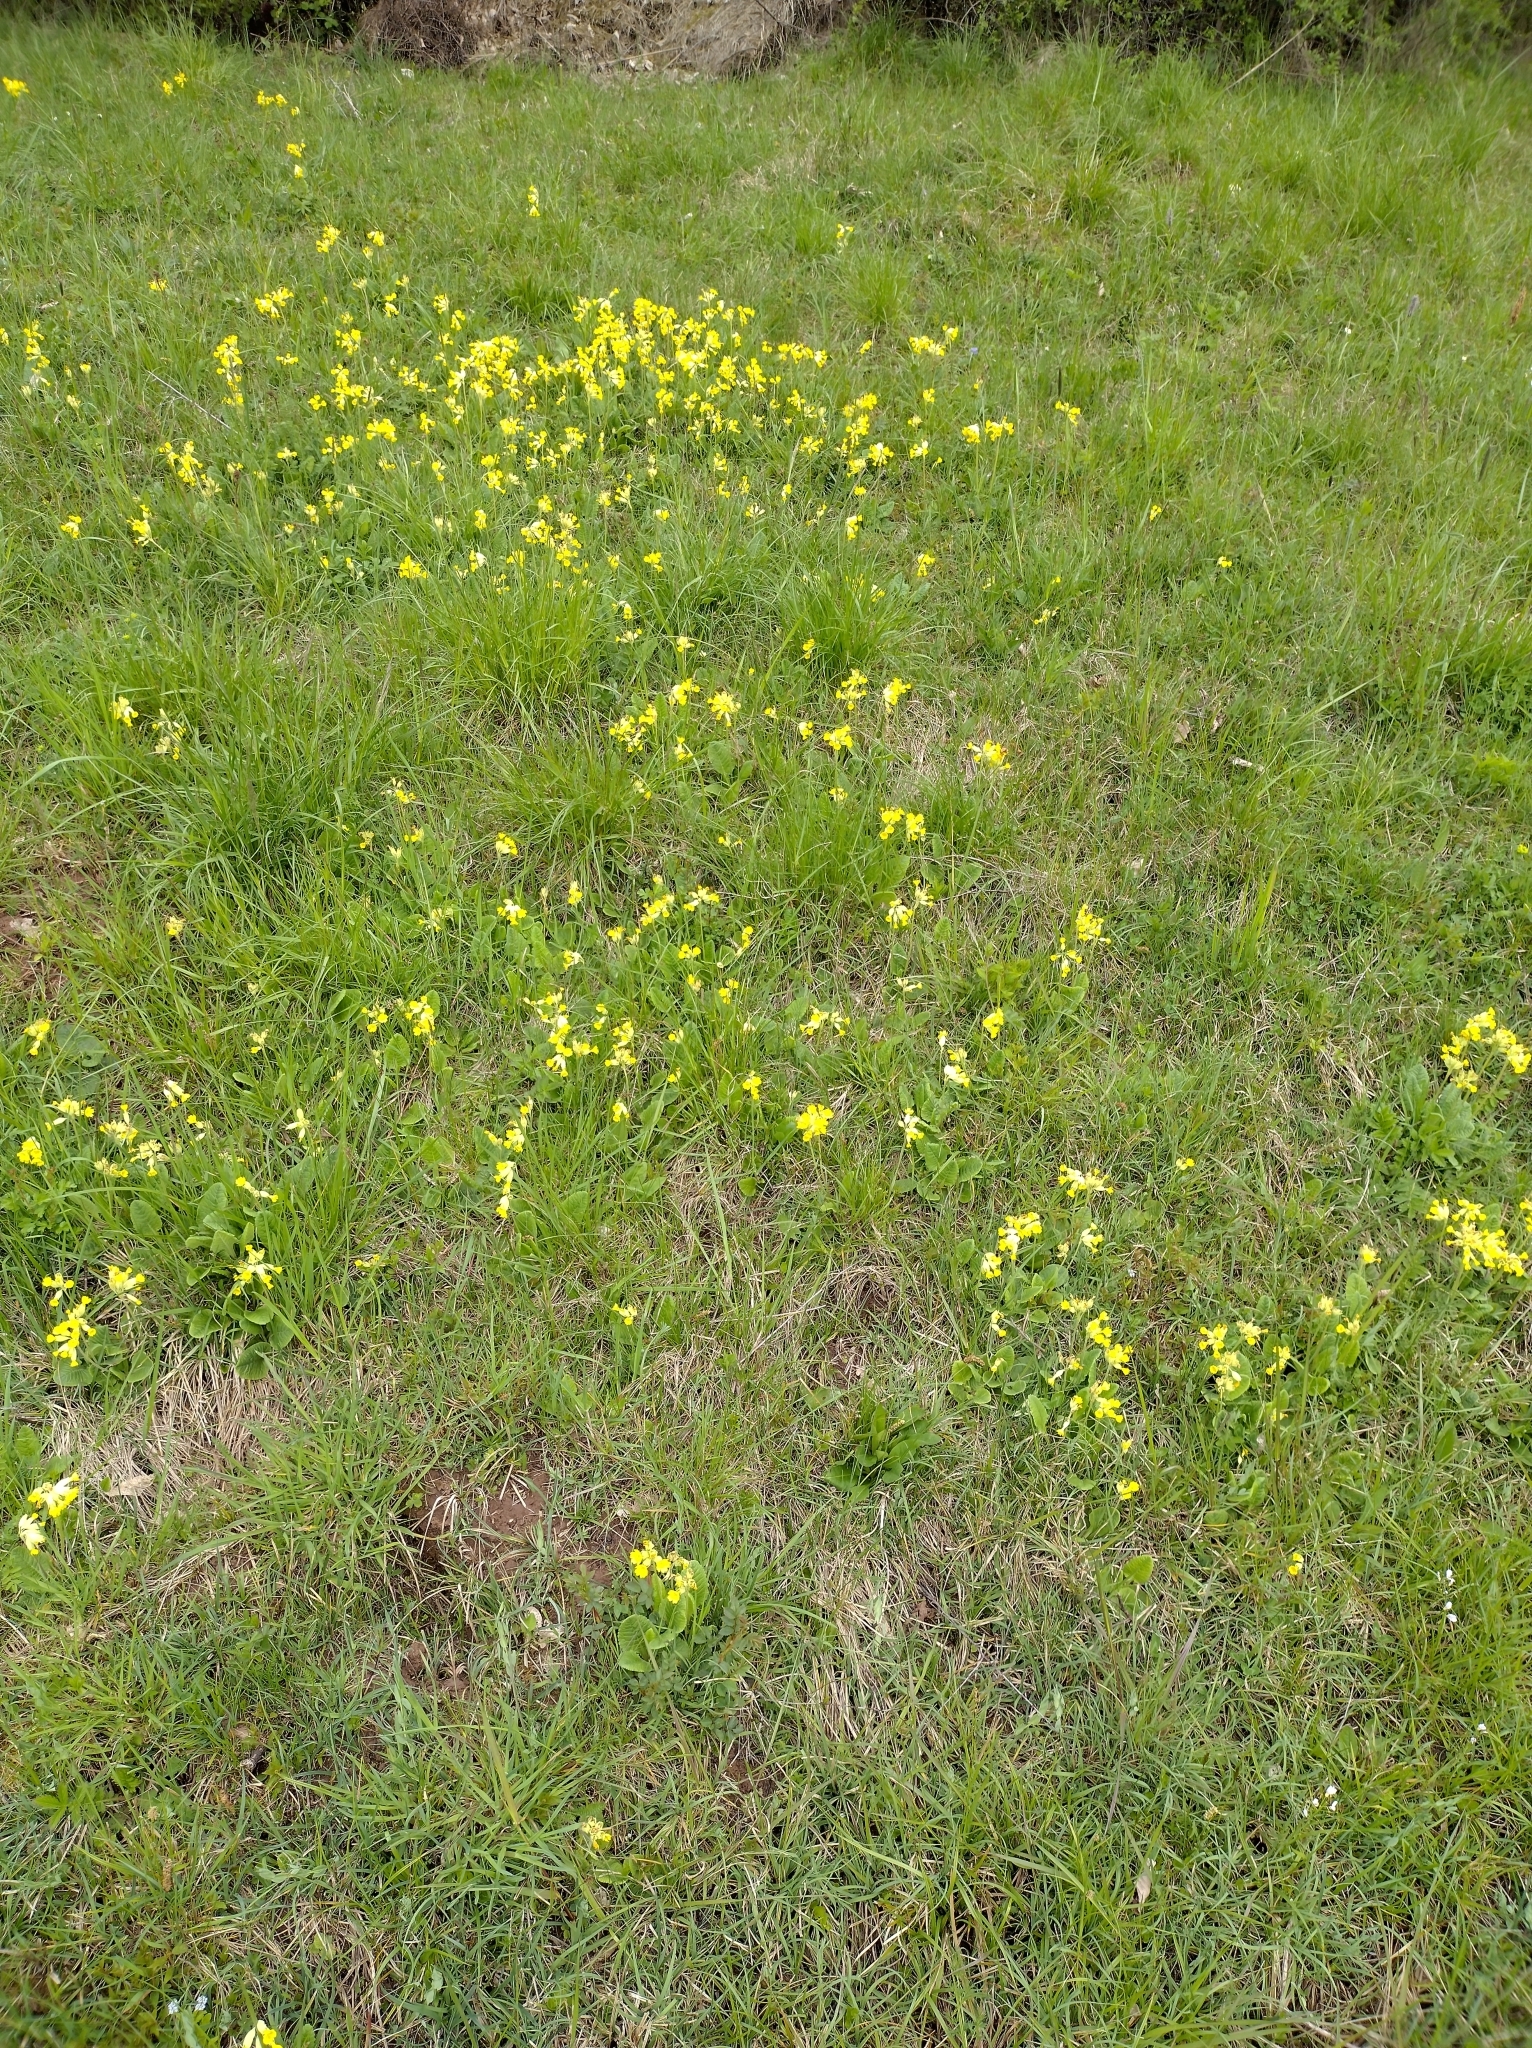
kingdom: Plantae
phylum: Tracheophyta
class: Magnoliopsida
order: Ericales
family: Primulaceae
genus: Primula
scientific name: Primula veris
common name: Cowslip
